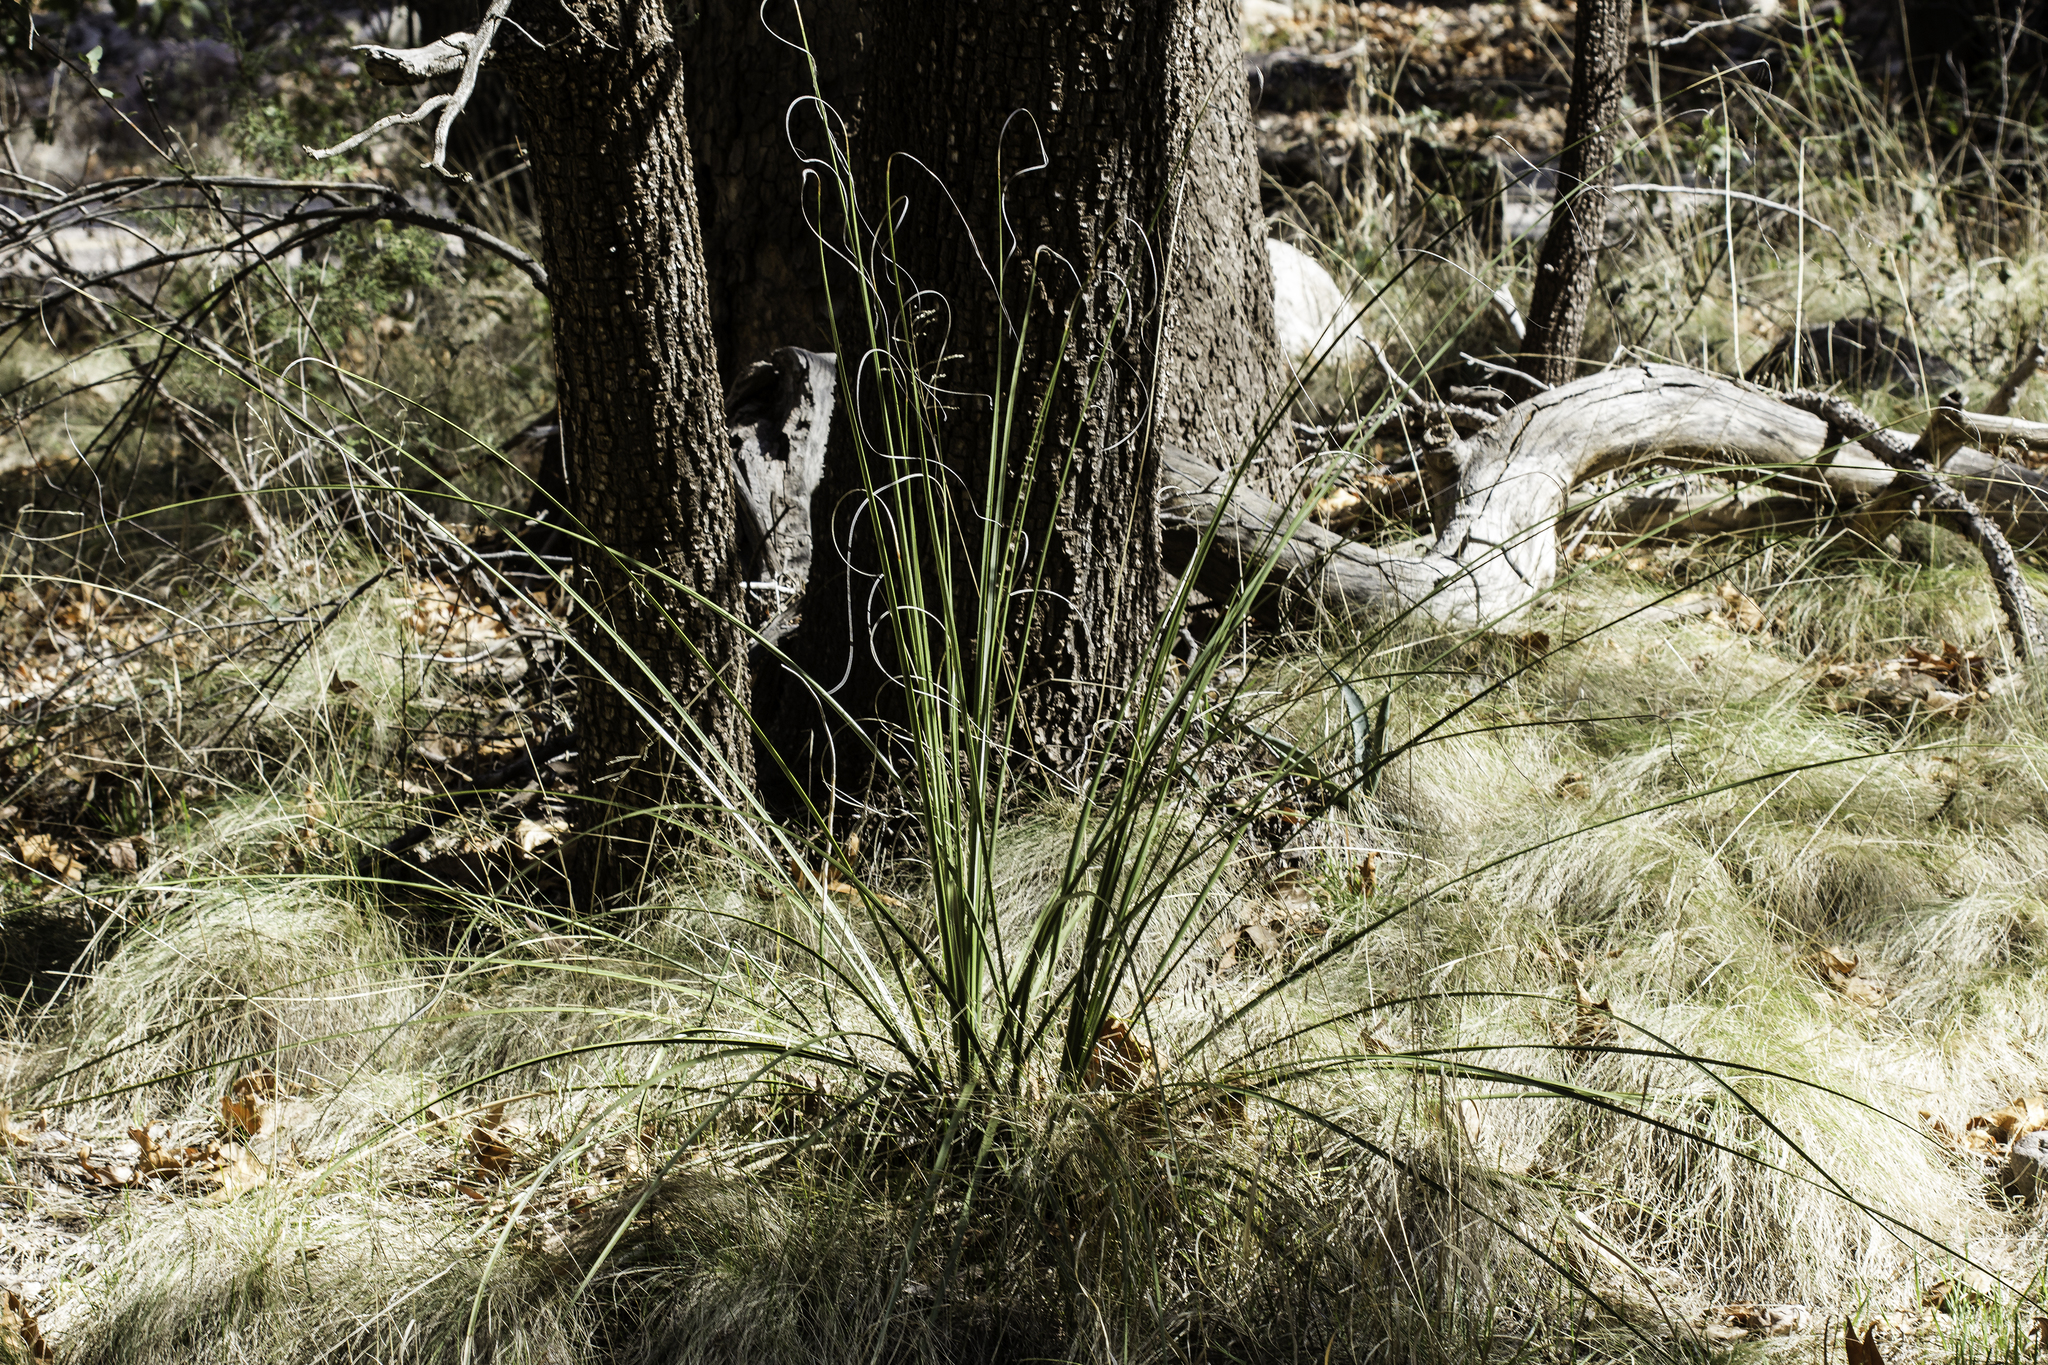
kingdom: Plantae
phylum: Tracheophyta
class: Liliopsida
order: Asparagales
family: Asparagaceae
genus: Nolina
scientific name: Nolina microcarpa
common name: Bear-grass
